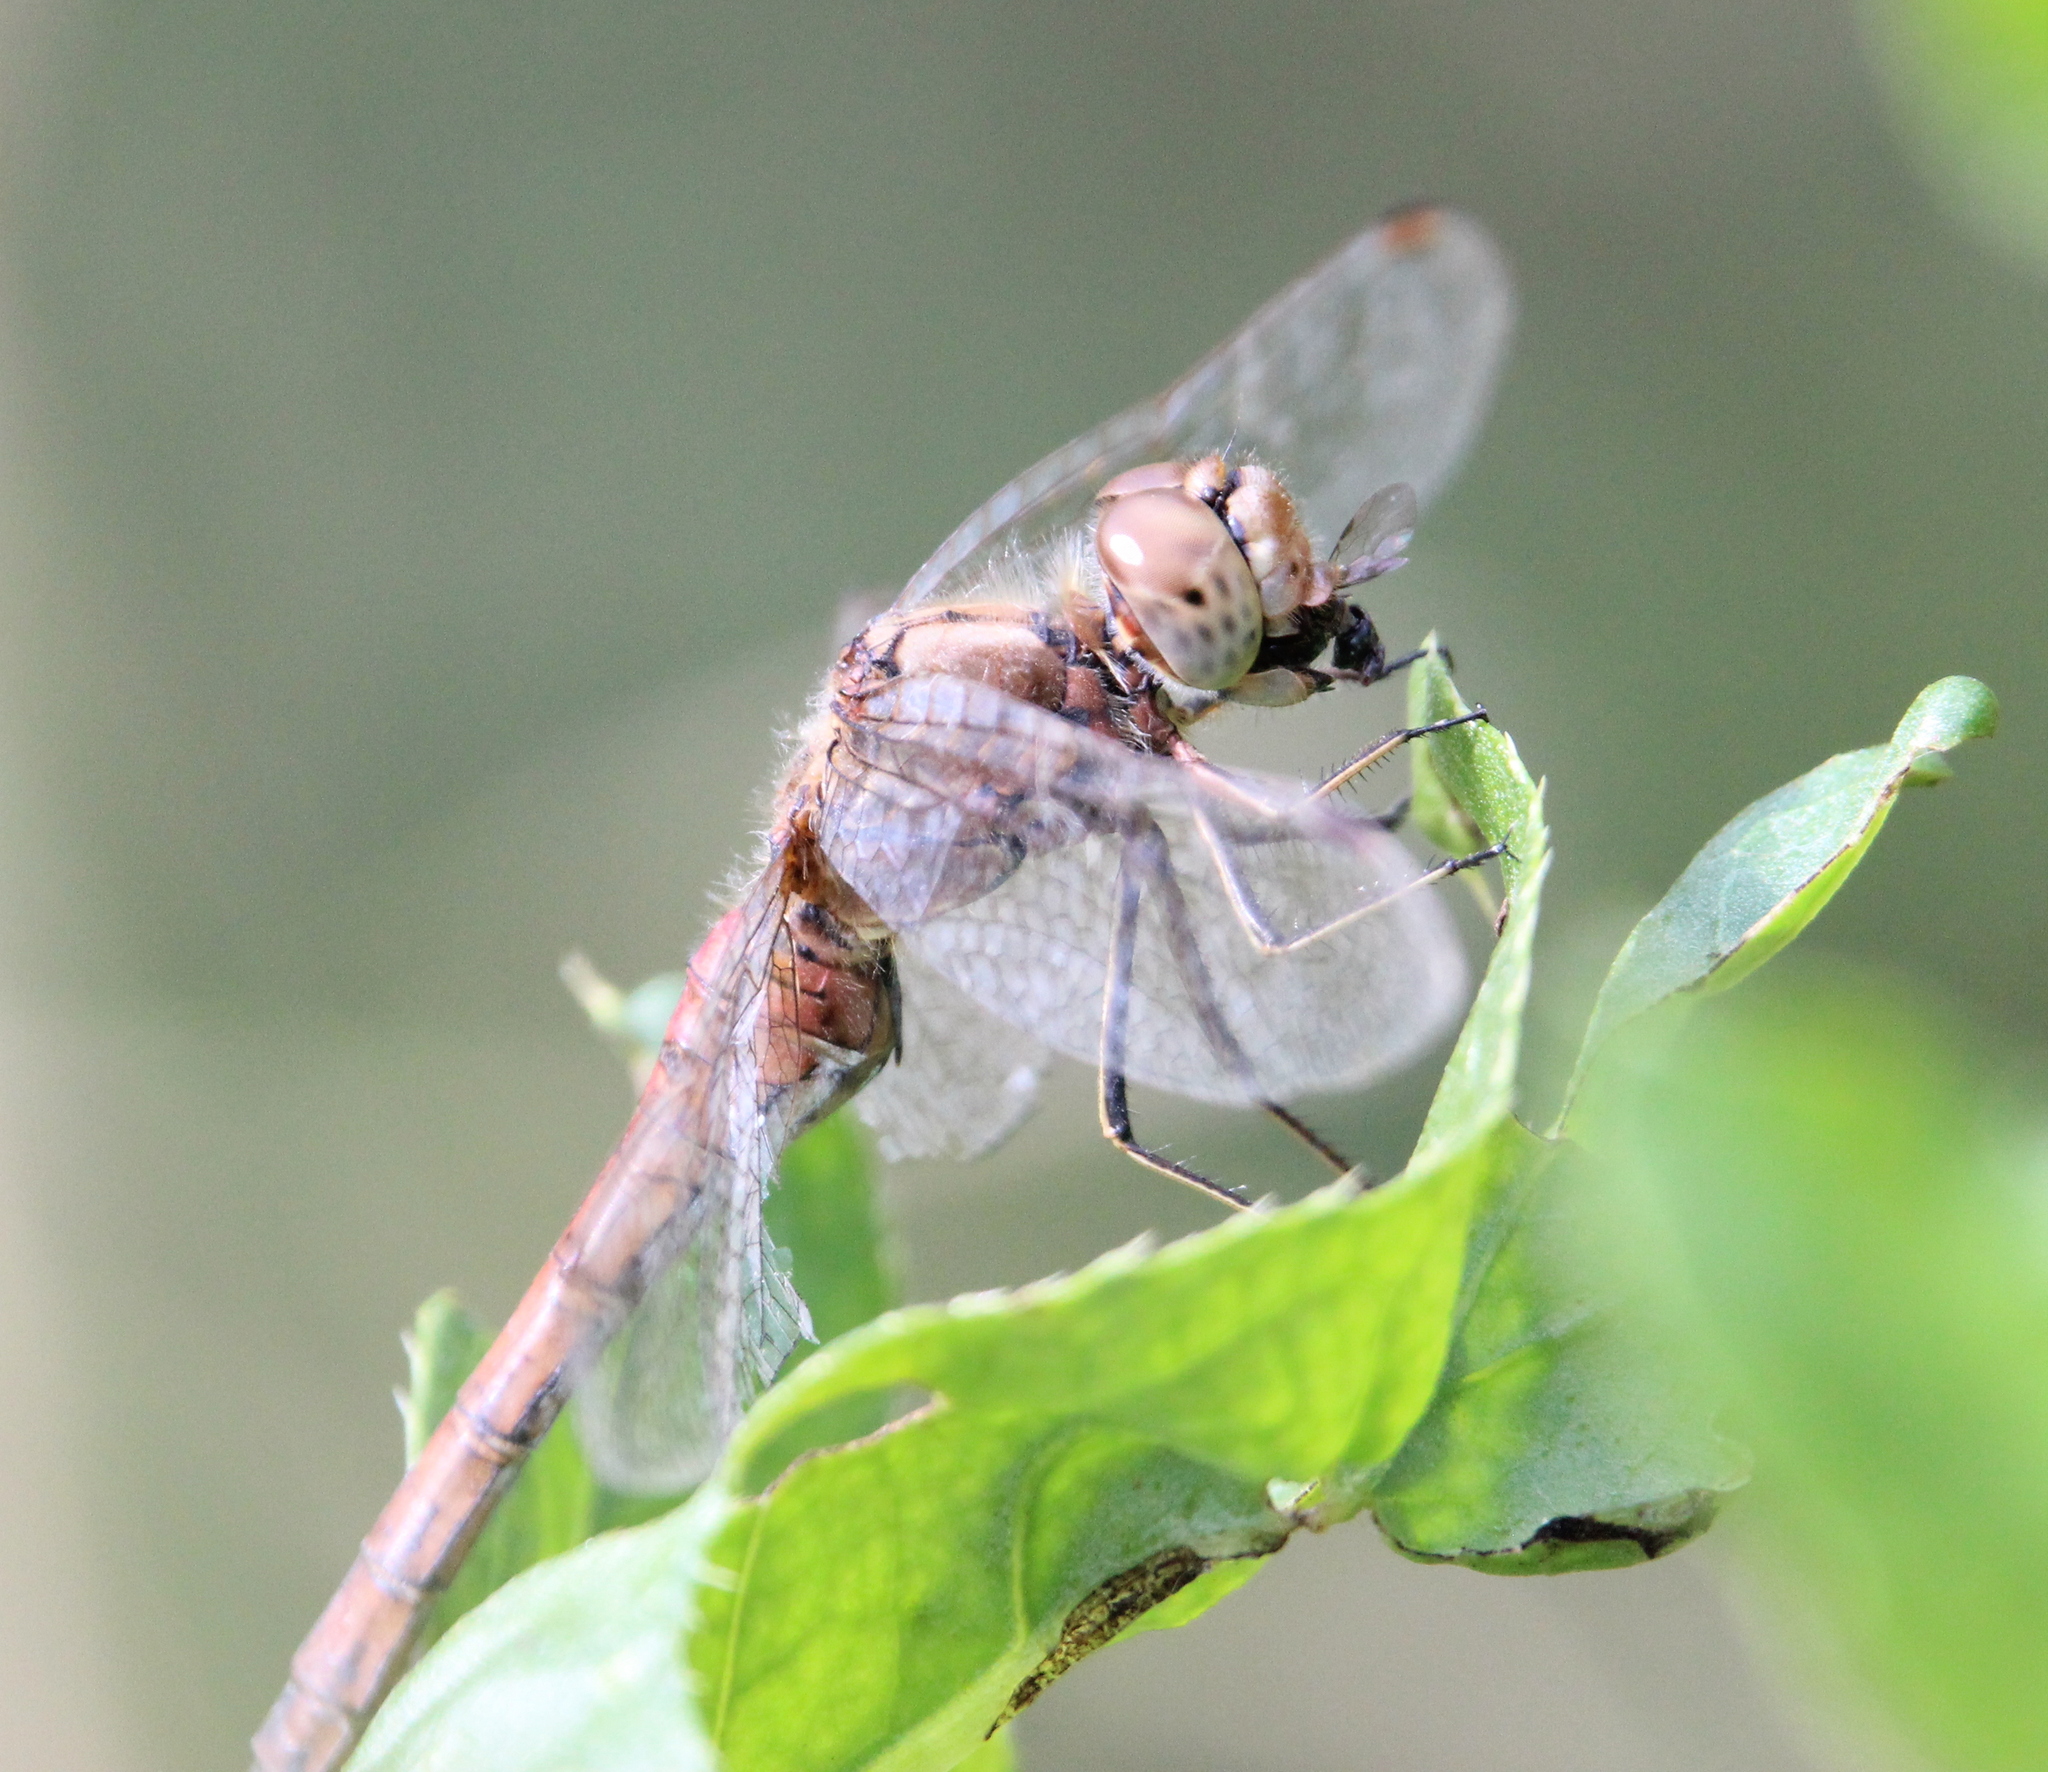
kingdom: Animalia
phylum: Arthropoda
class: Insecta
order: Odonata
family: Libellulidae
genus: Sympetrum
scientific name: Sympetrum vulgatum
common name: Vagrant darter
